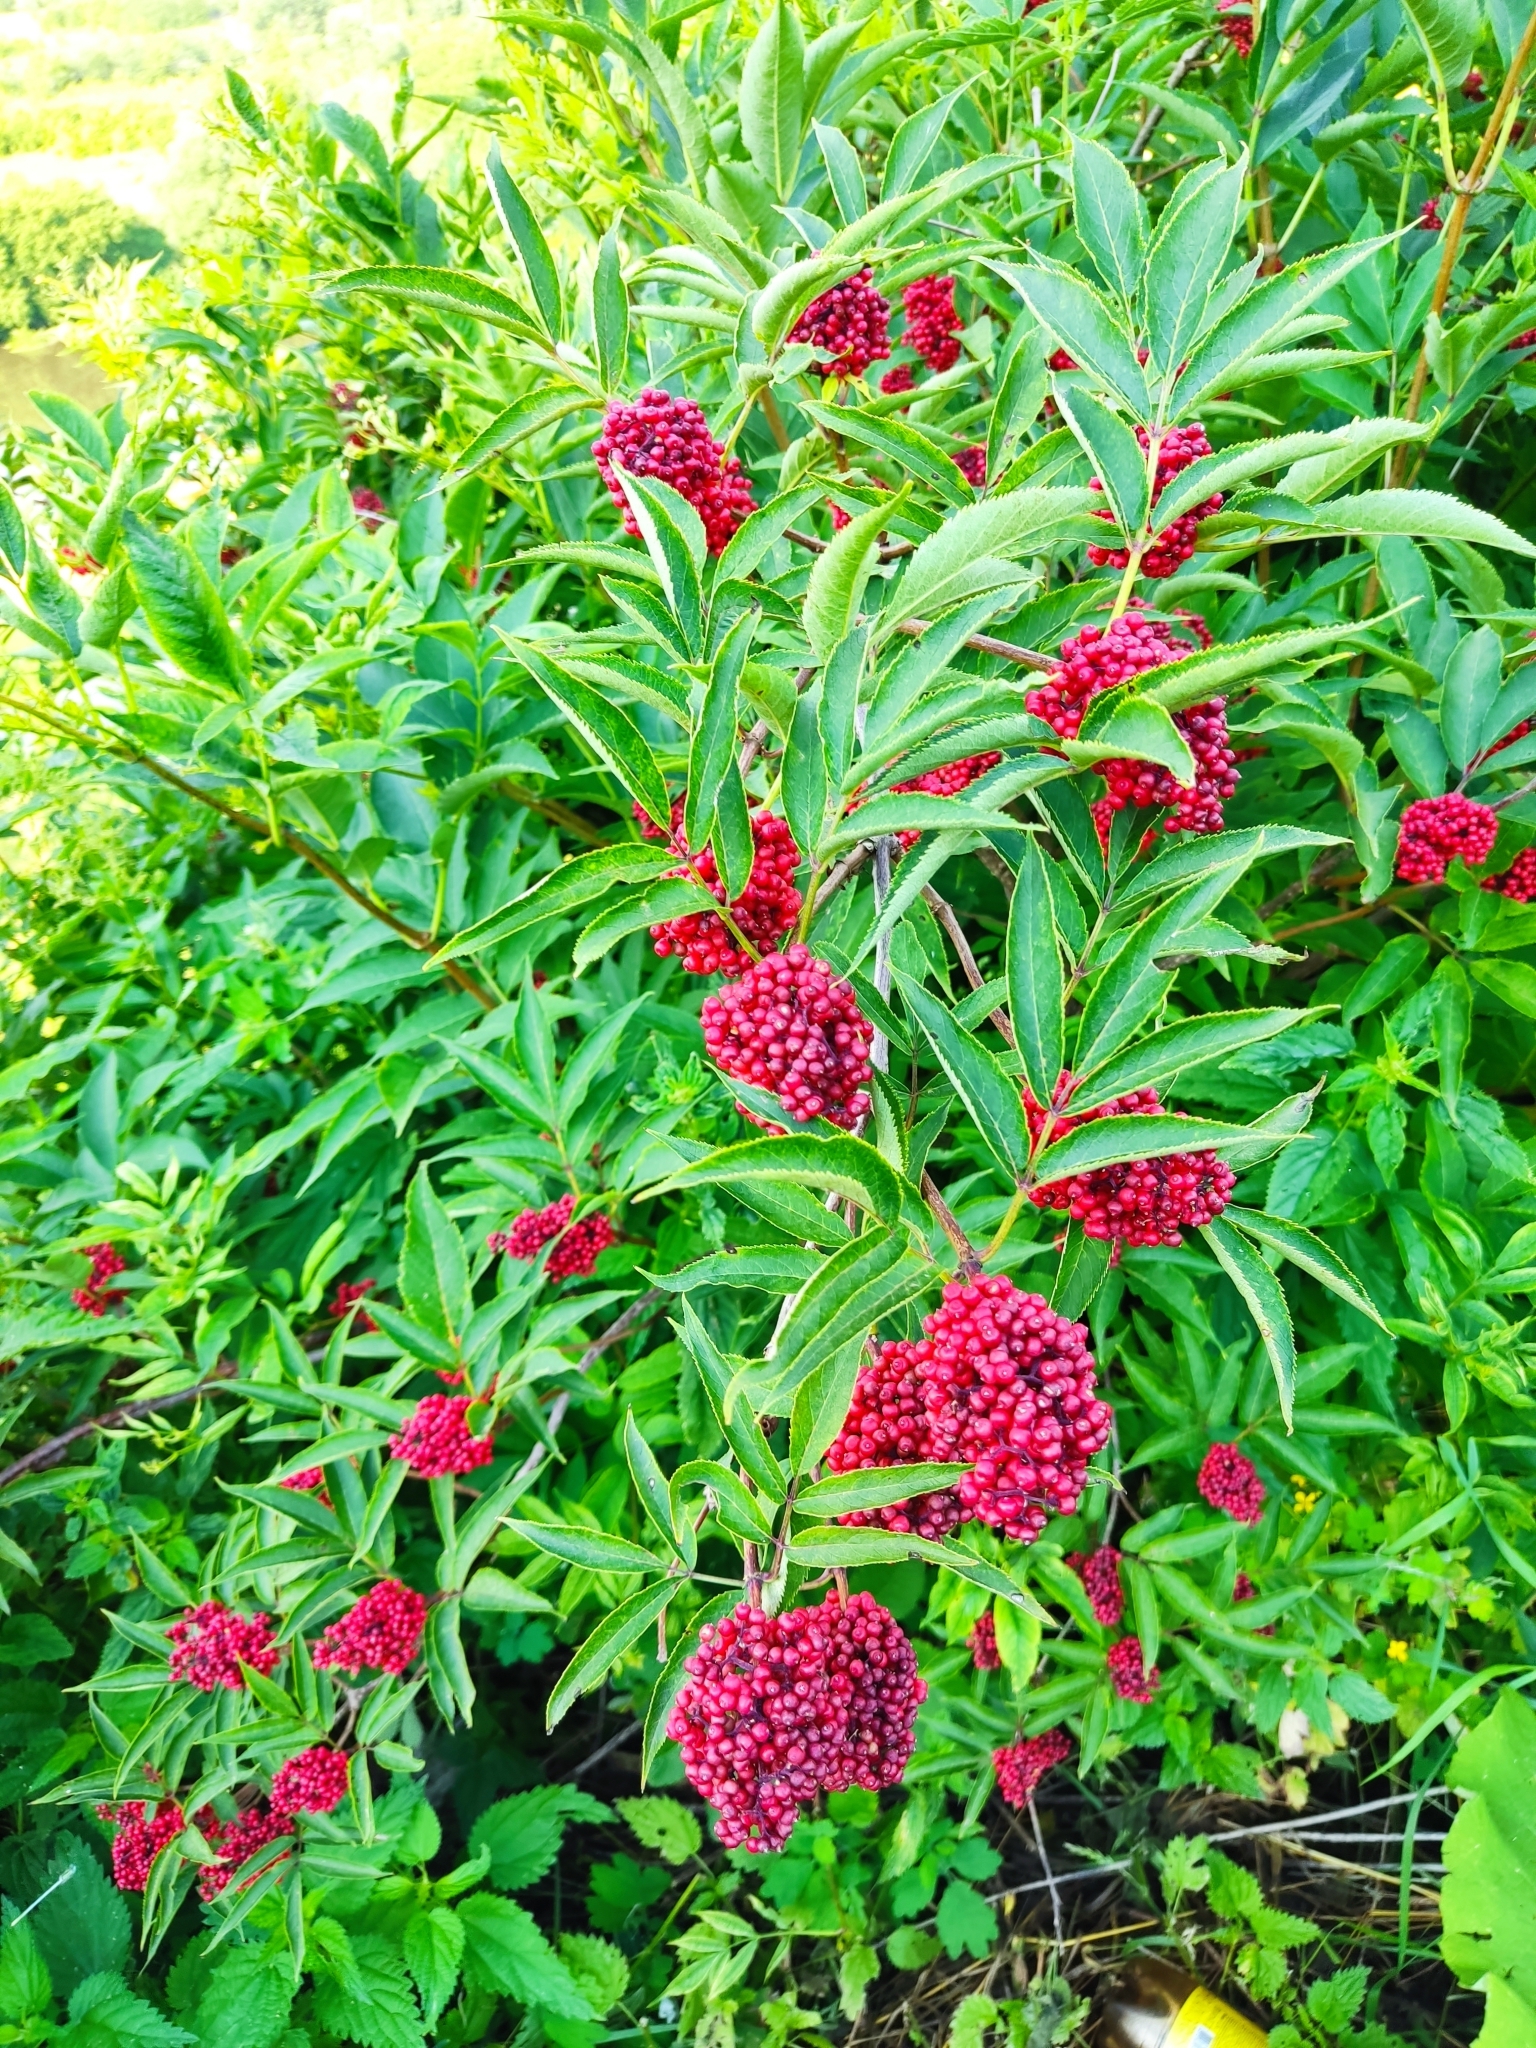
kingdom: Plantae
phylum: Tracheophyta
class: Magnoliopsida
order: Dipsacales
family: Viburnaceae
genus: Sambucus
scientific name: Sambucus racemosa
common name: Red-berried elder
